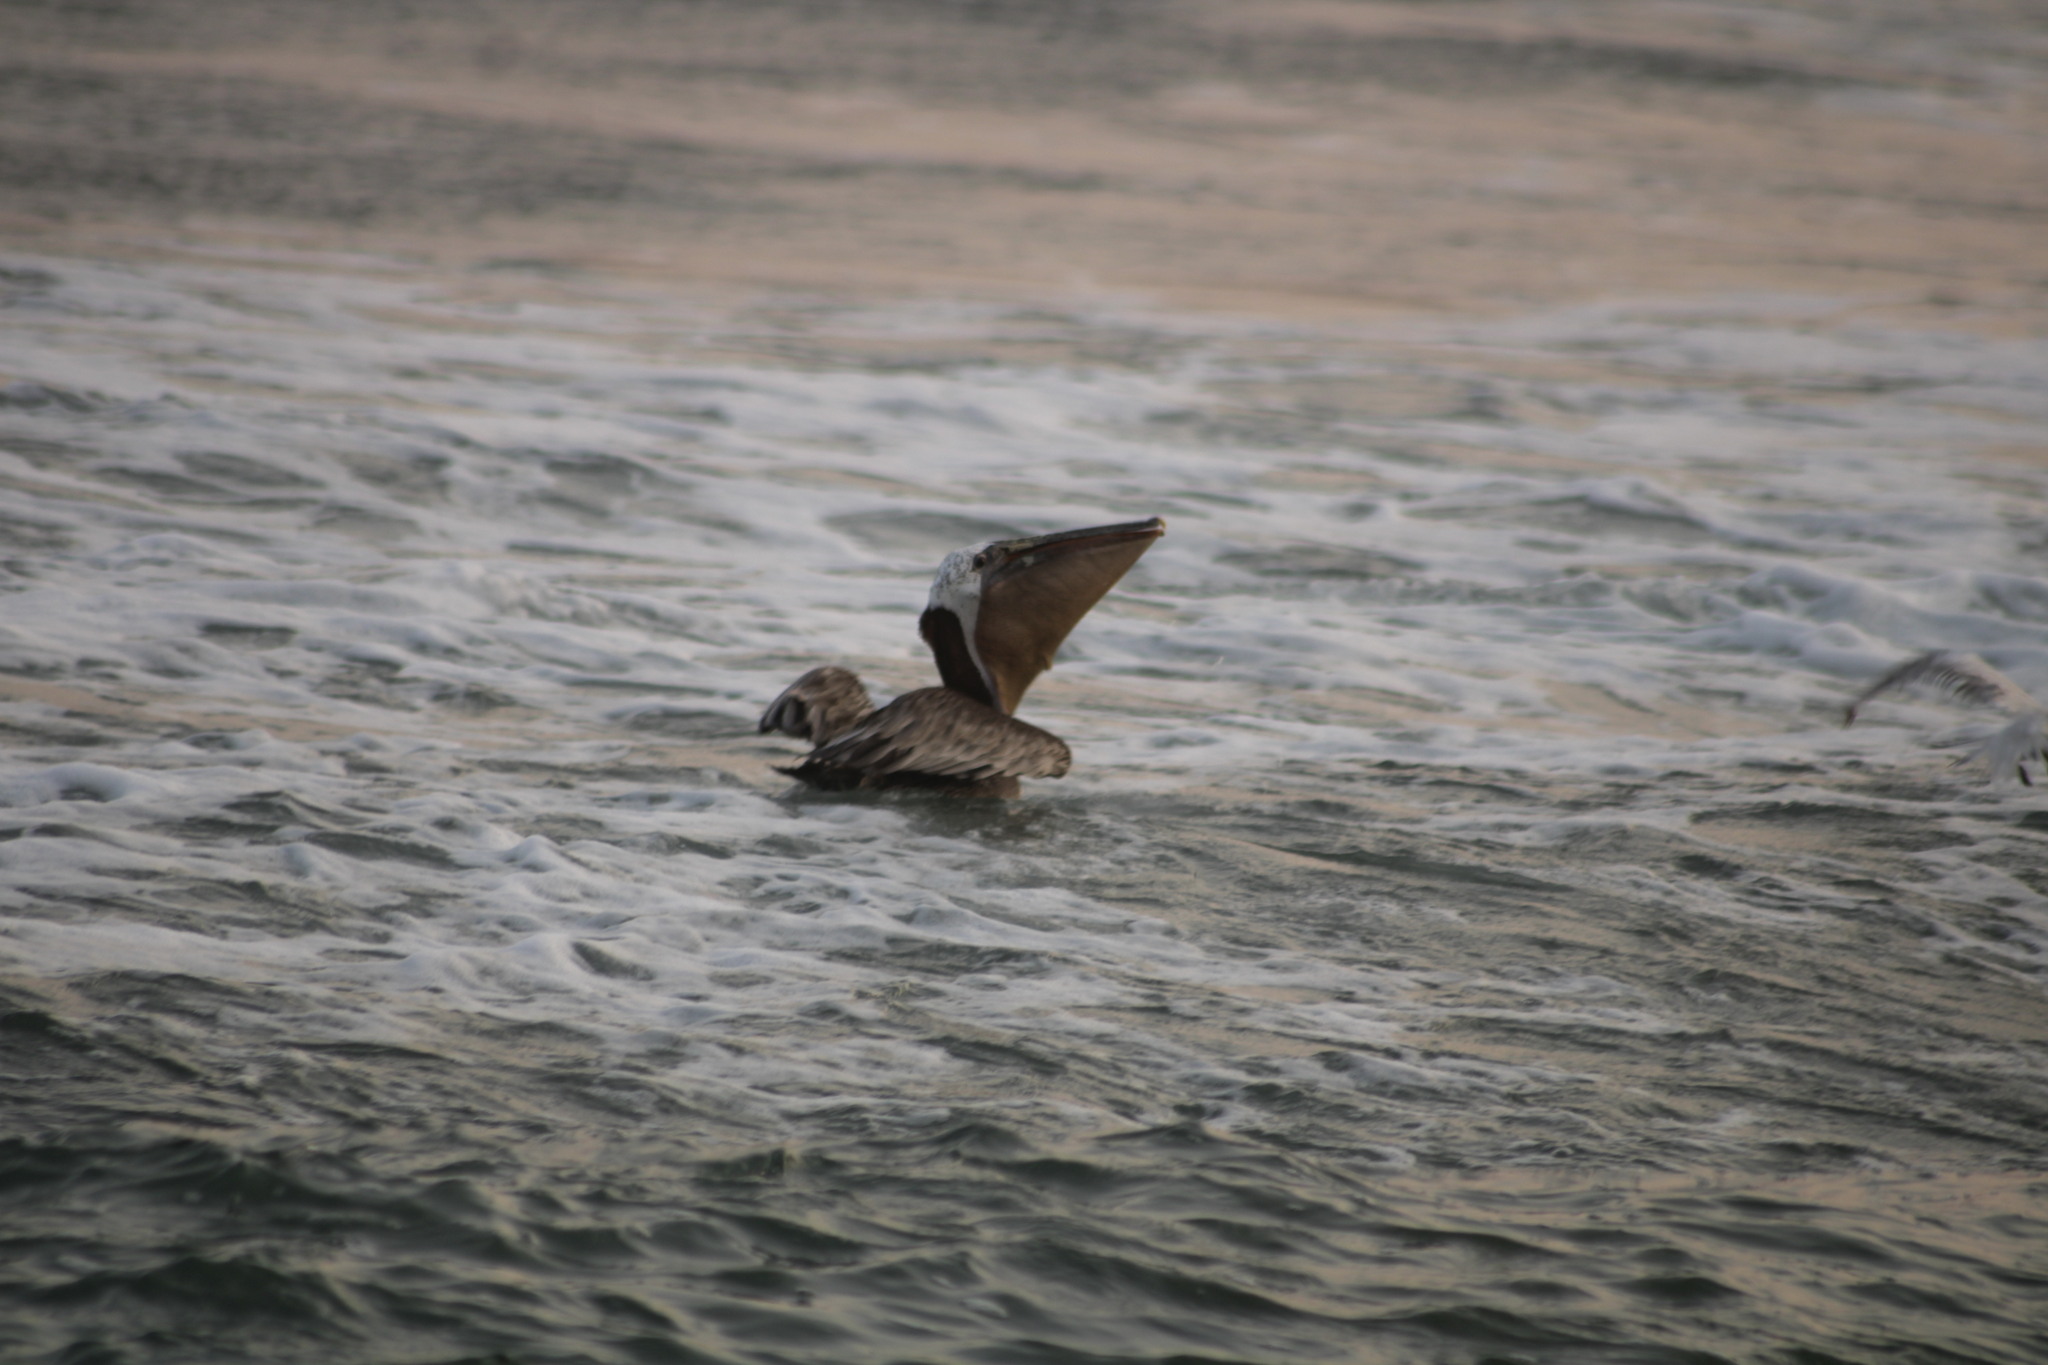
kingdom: Animalia
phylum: Chordata
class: Aves
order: Pelecaniformes
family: Pelecanidae
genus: Pelecanus
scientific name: Pelecanus occidentalis
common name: Brown pelican
